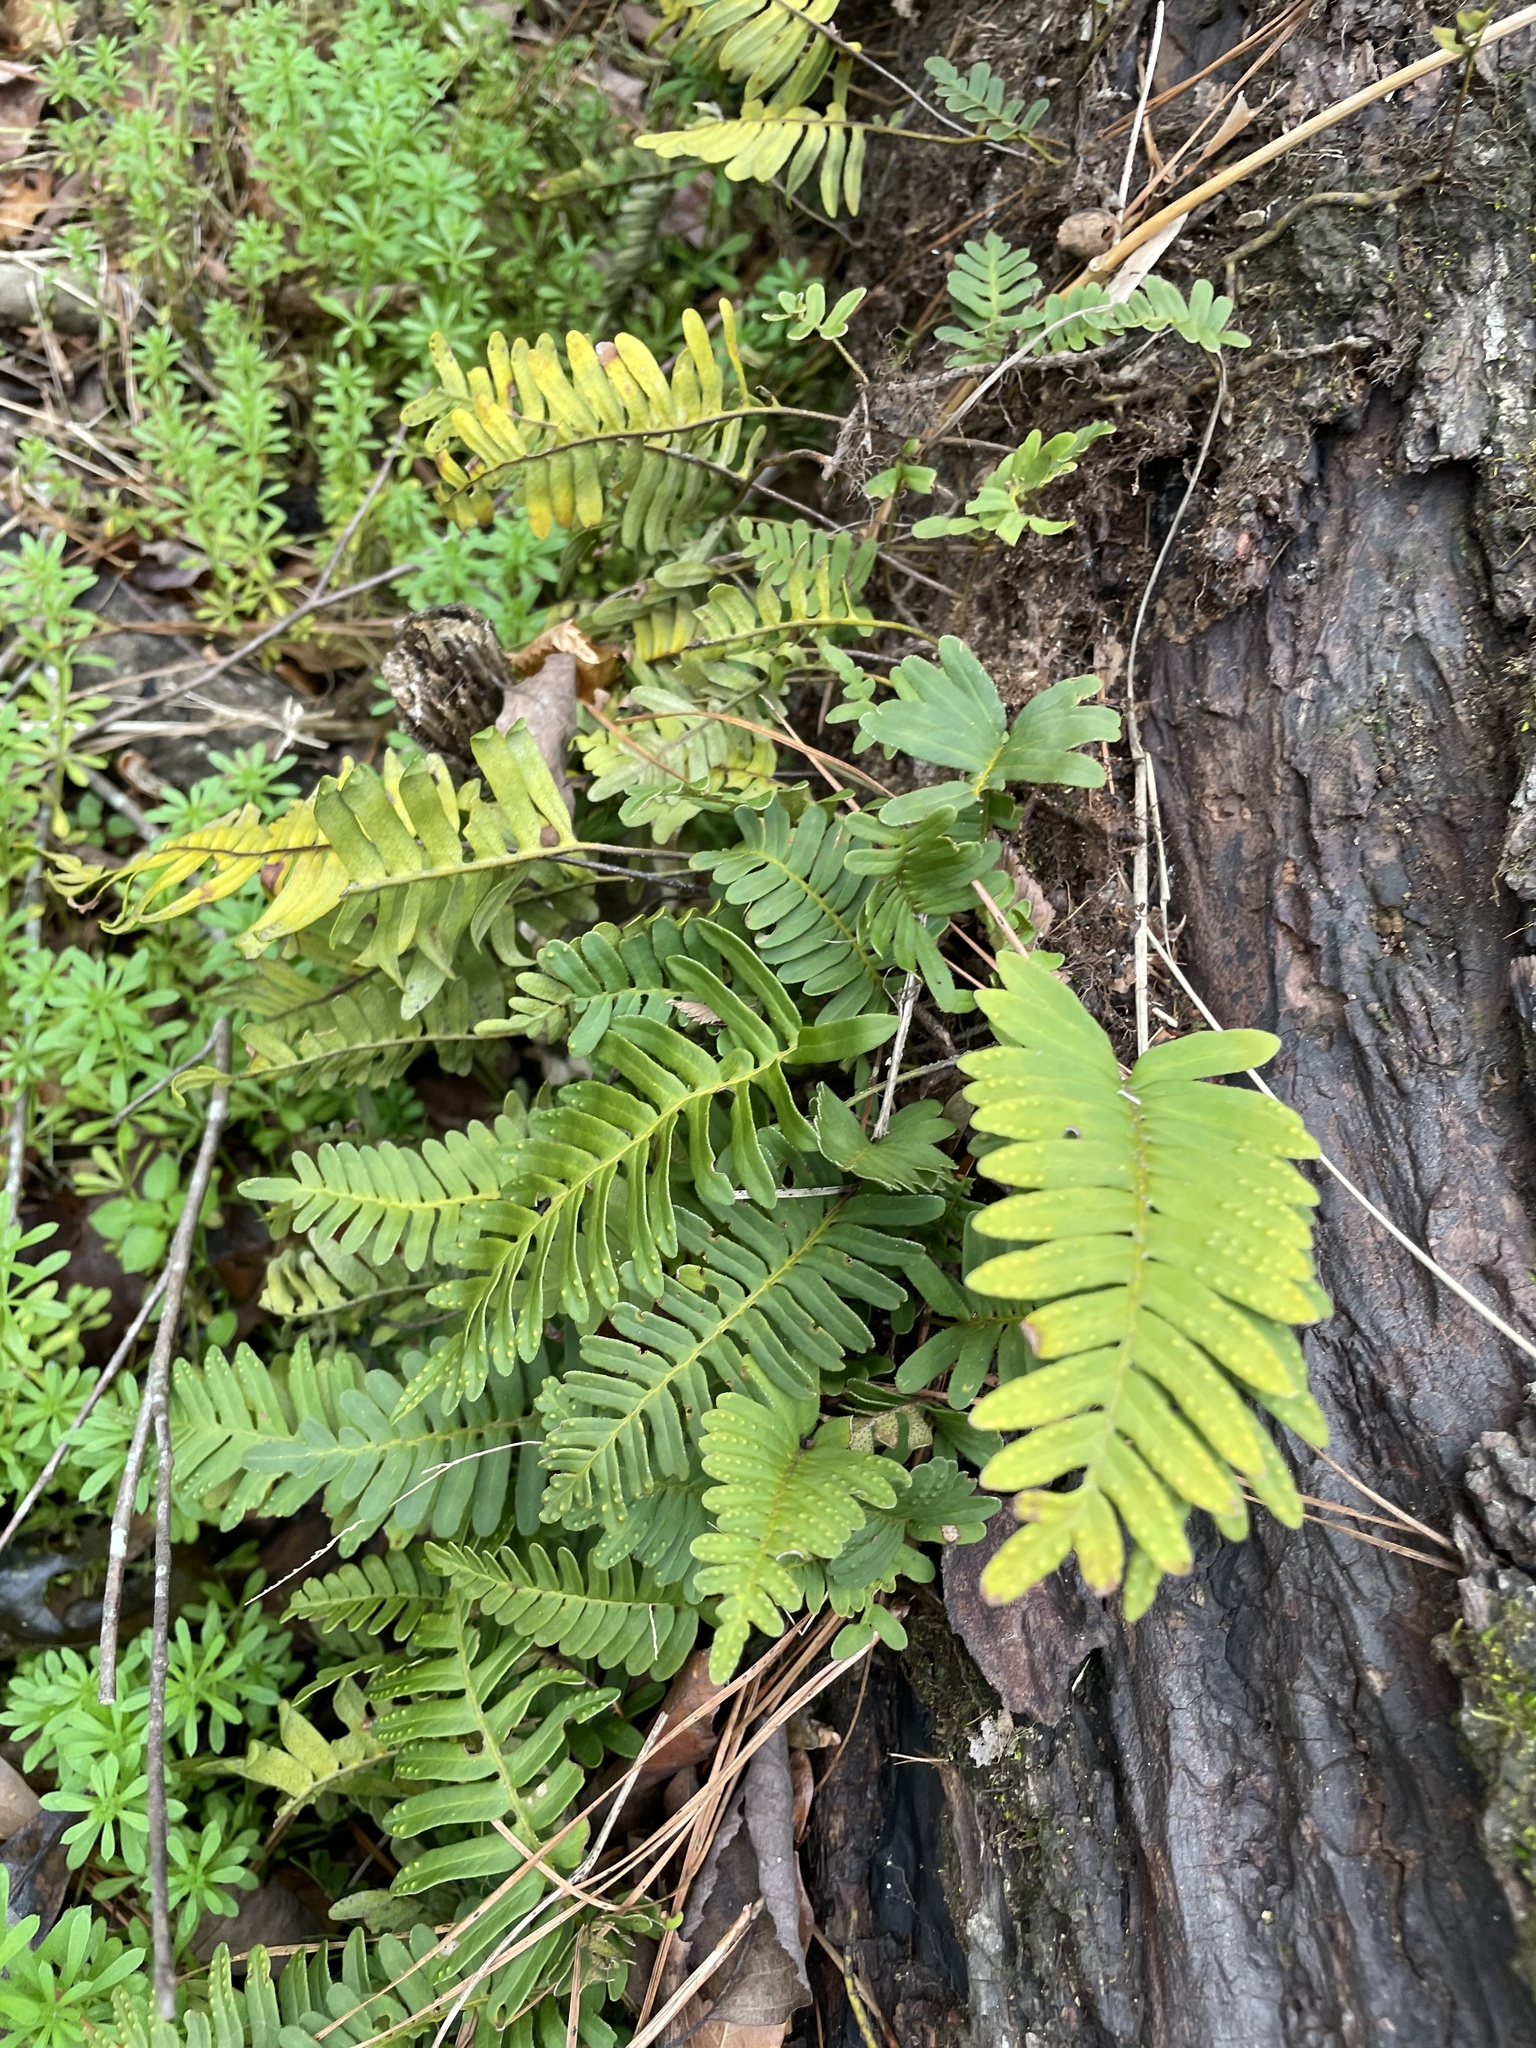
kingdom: Plantae
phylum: Tracheophyta
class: Polypodiopsida
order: Polypodiales
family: Polypodiaceae
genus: Pleopeltis
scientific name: Pleopeltis michauxiana
